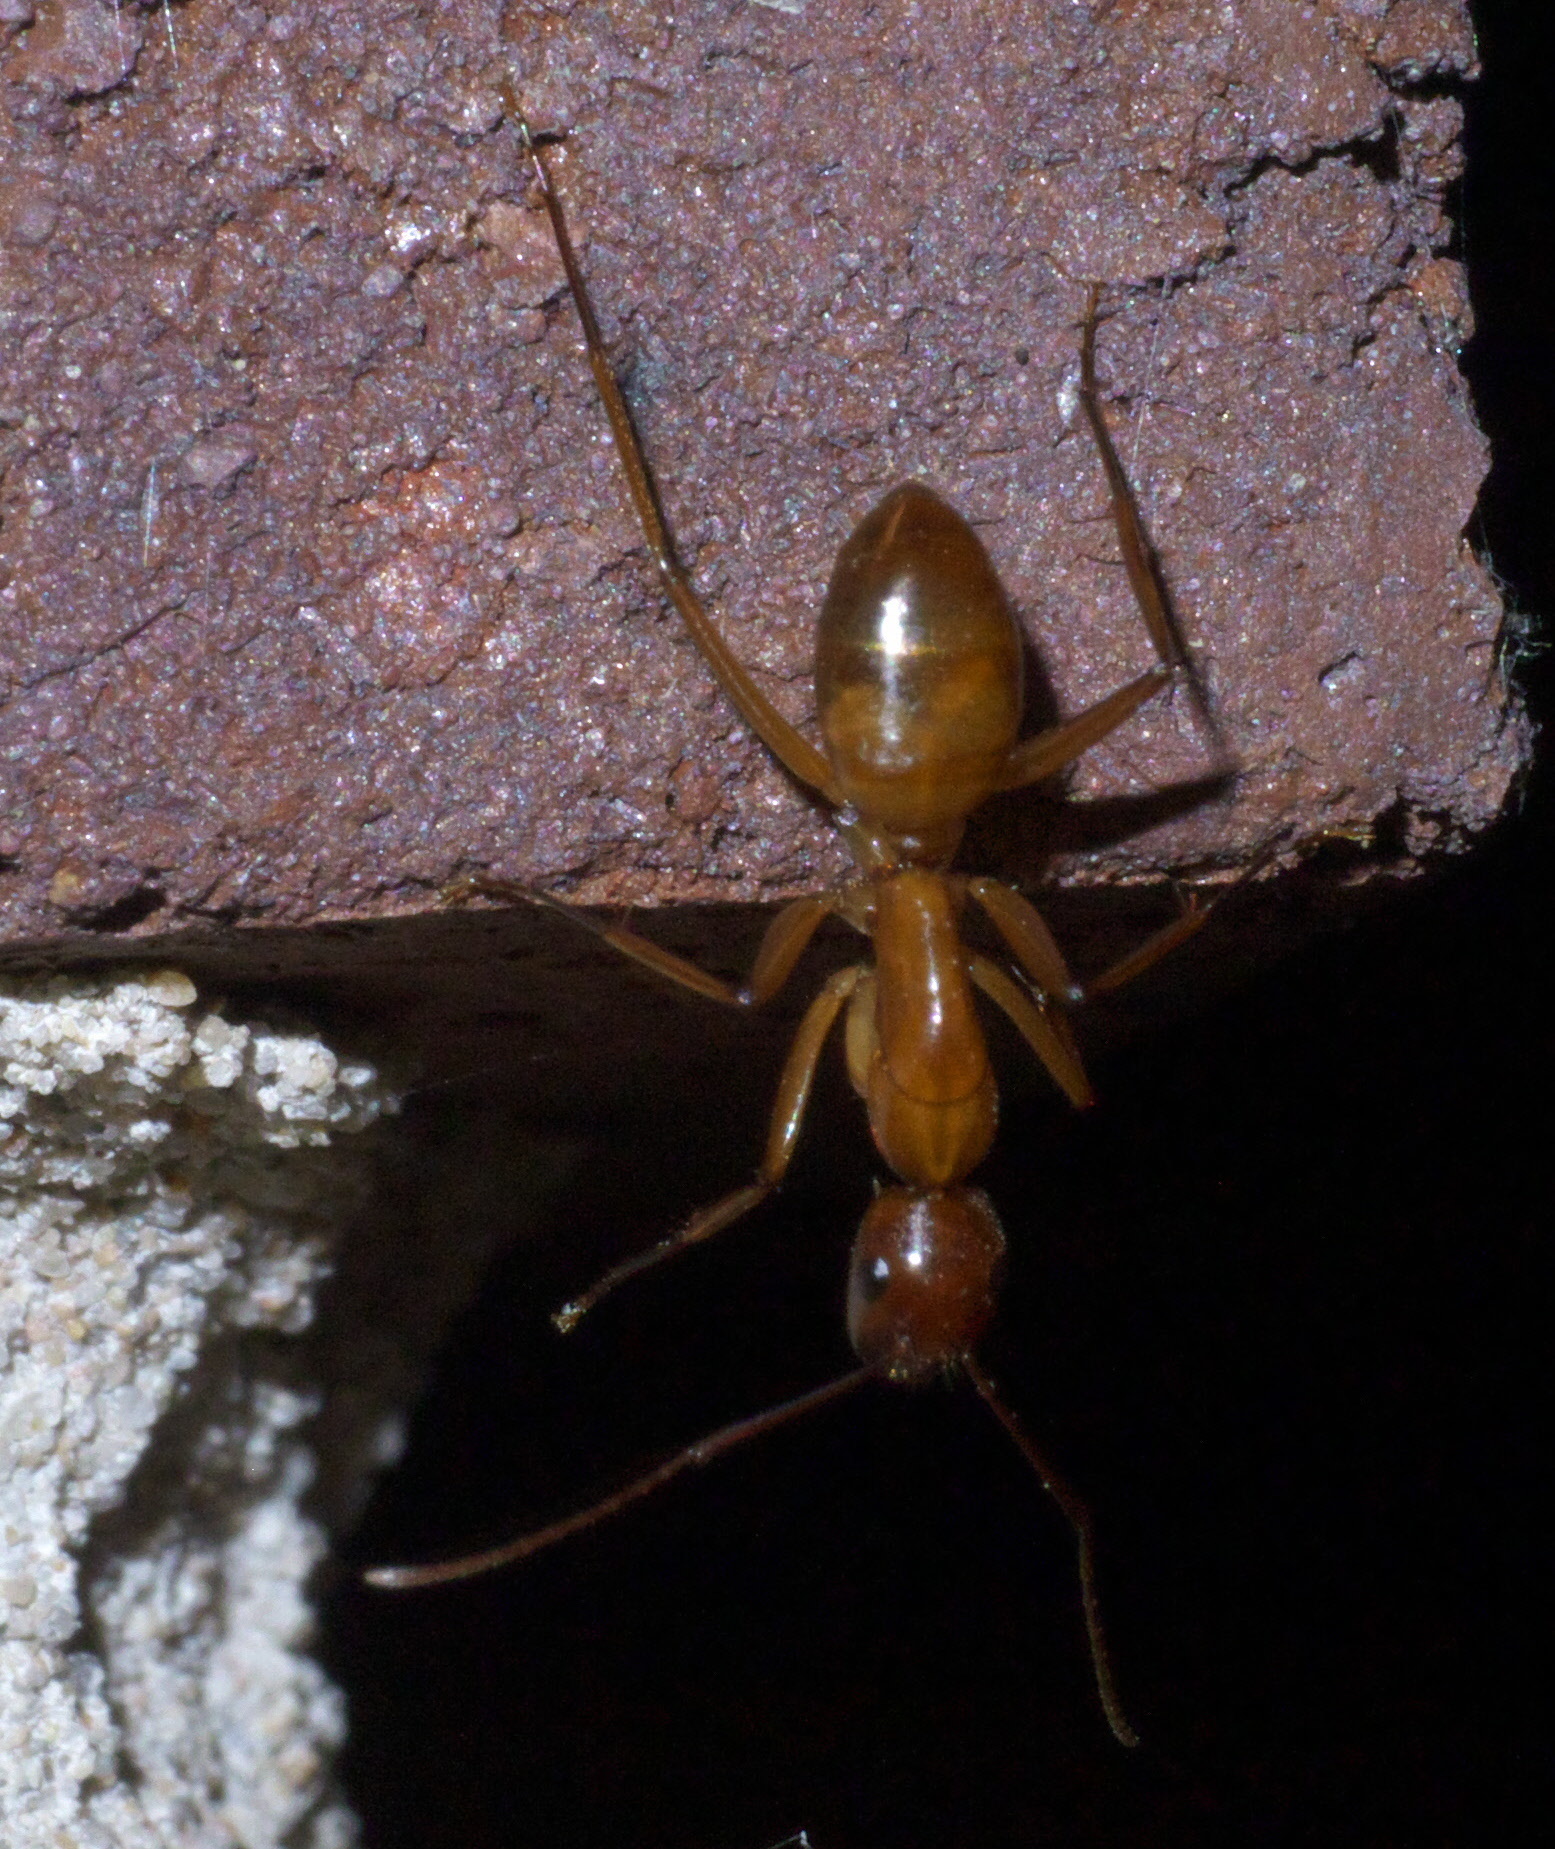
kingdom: Animalia
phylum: Arthropoda
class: Insecta
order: Hymenoptera
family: Formicidae
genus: Camponotus
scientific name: Camponotus castaneus
